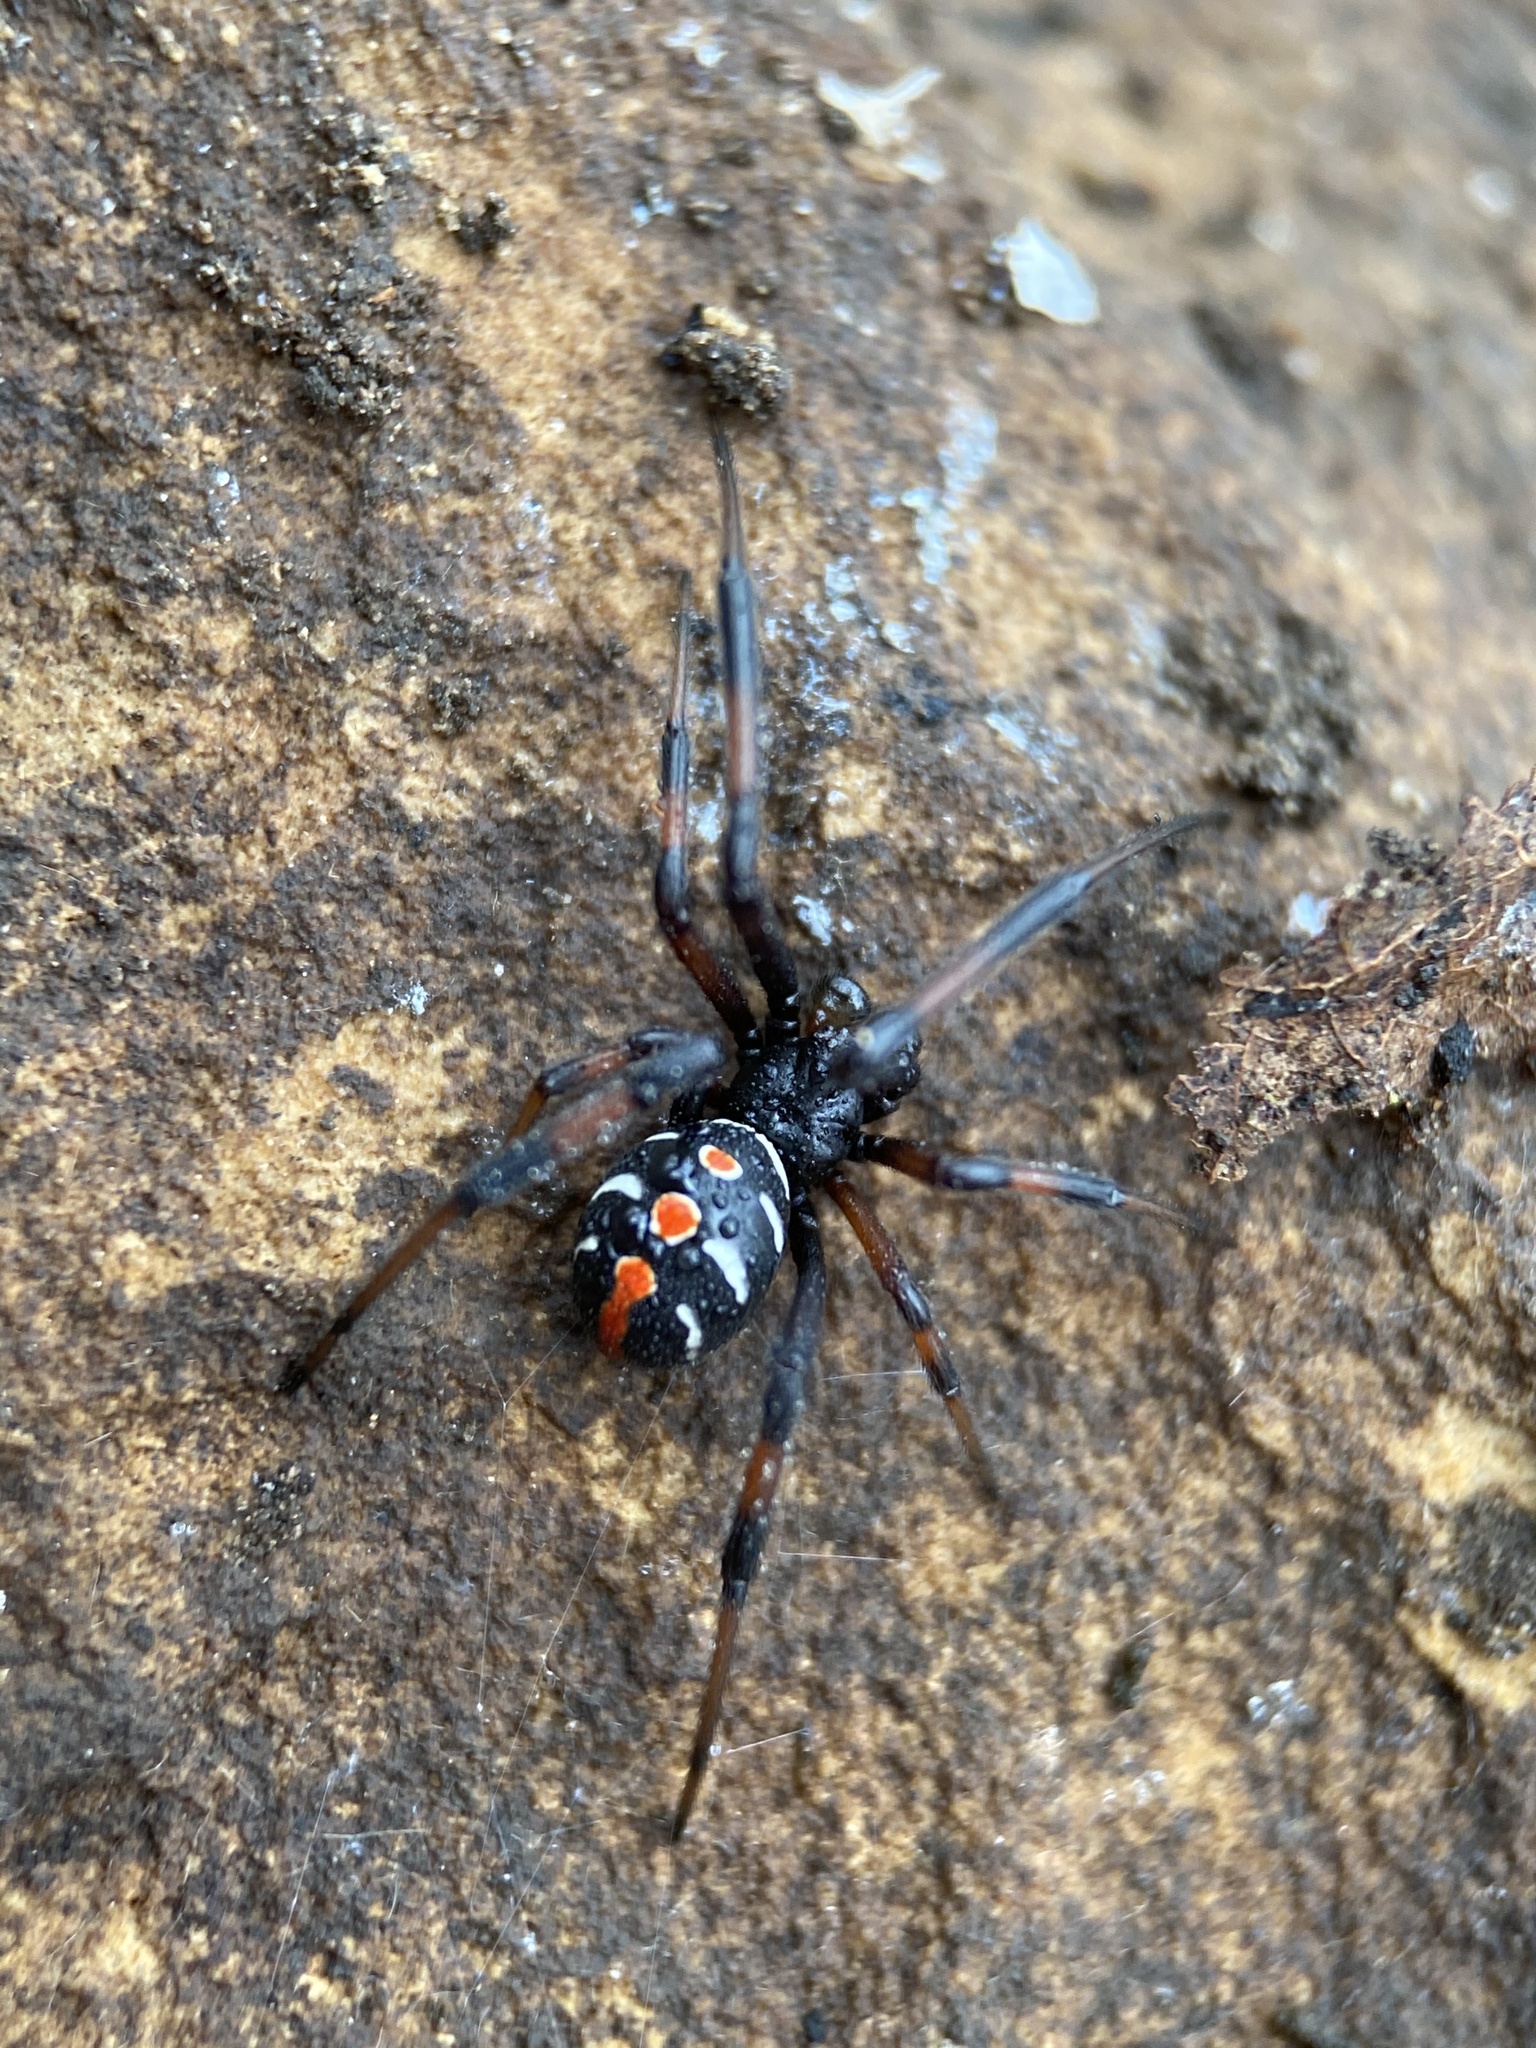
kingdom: Animalia
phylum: Arthropoda
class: Arachnida
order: Araneae
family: Theridiidae
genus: Latrodectus
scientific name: Latrodectus variolus
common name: Northern black widow
